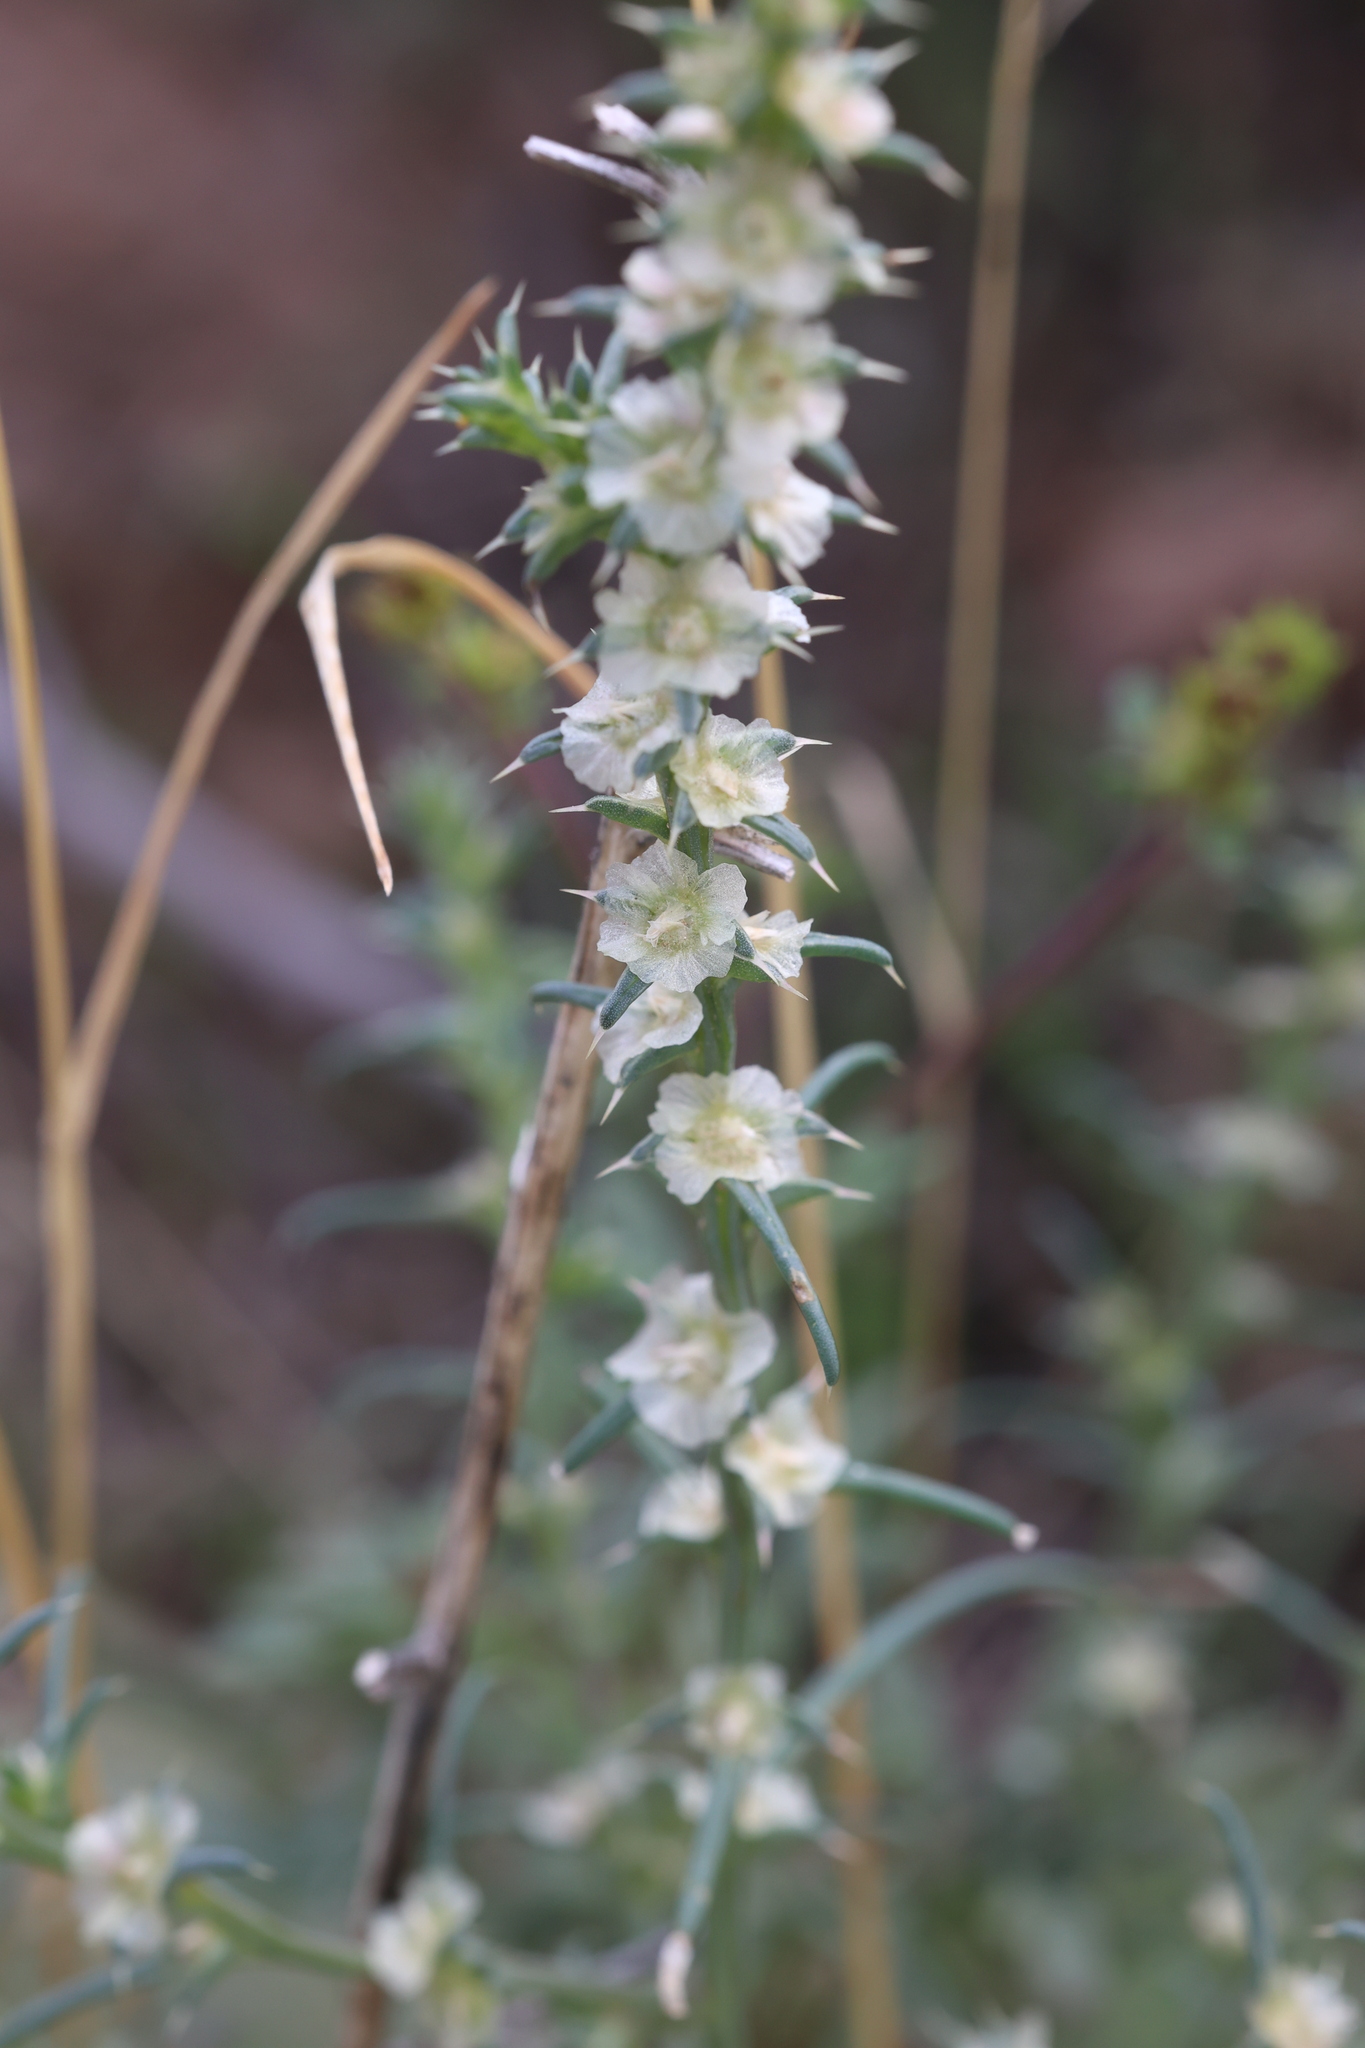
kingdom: Plantae
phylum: Tracheophyta
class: Magnoliopsida
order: Caryophyllales
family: Amaranthaceae
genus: Salsola
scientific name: Salsola tragus
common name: Prickly russian thistle
